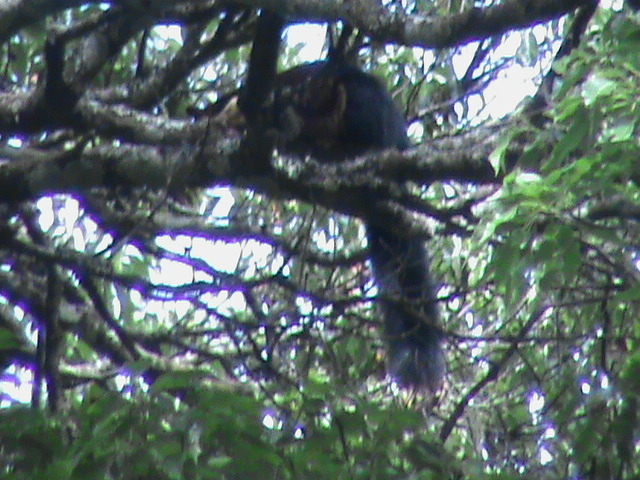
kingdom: Animalia
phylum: Chordata
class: Mammalia
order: Rodentia
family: Sciuridae
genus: Ratufa
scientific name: Ratufa indica
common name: Indian giant squirrel
